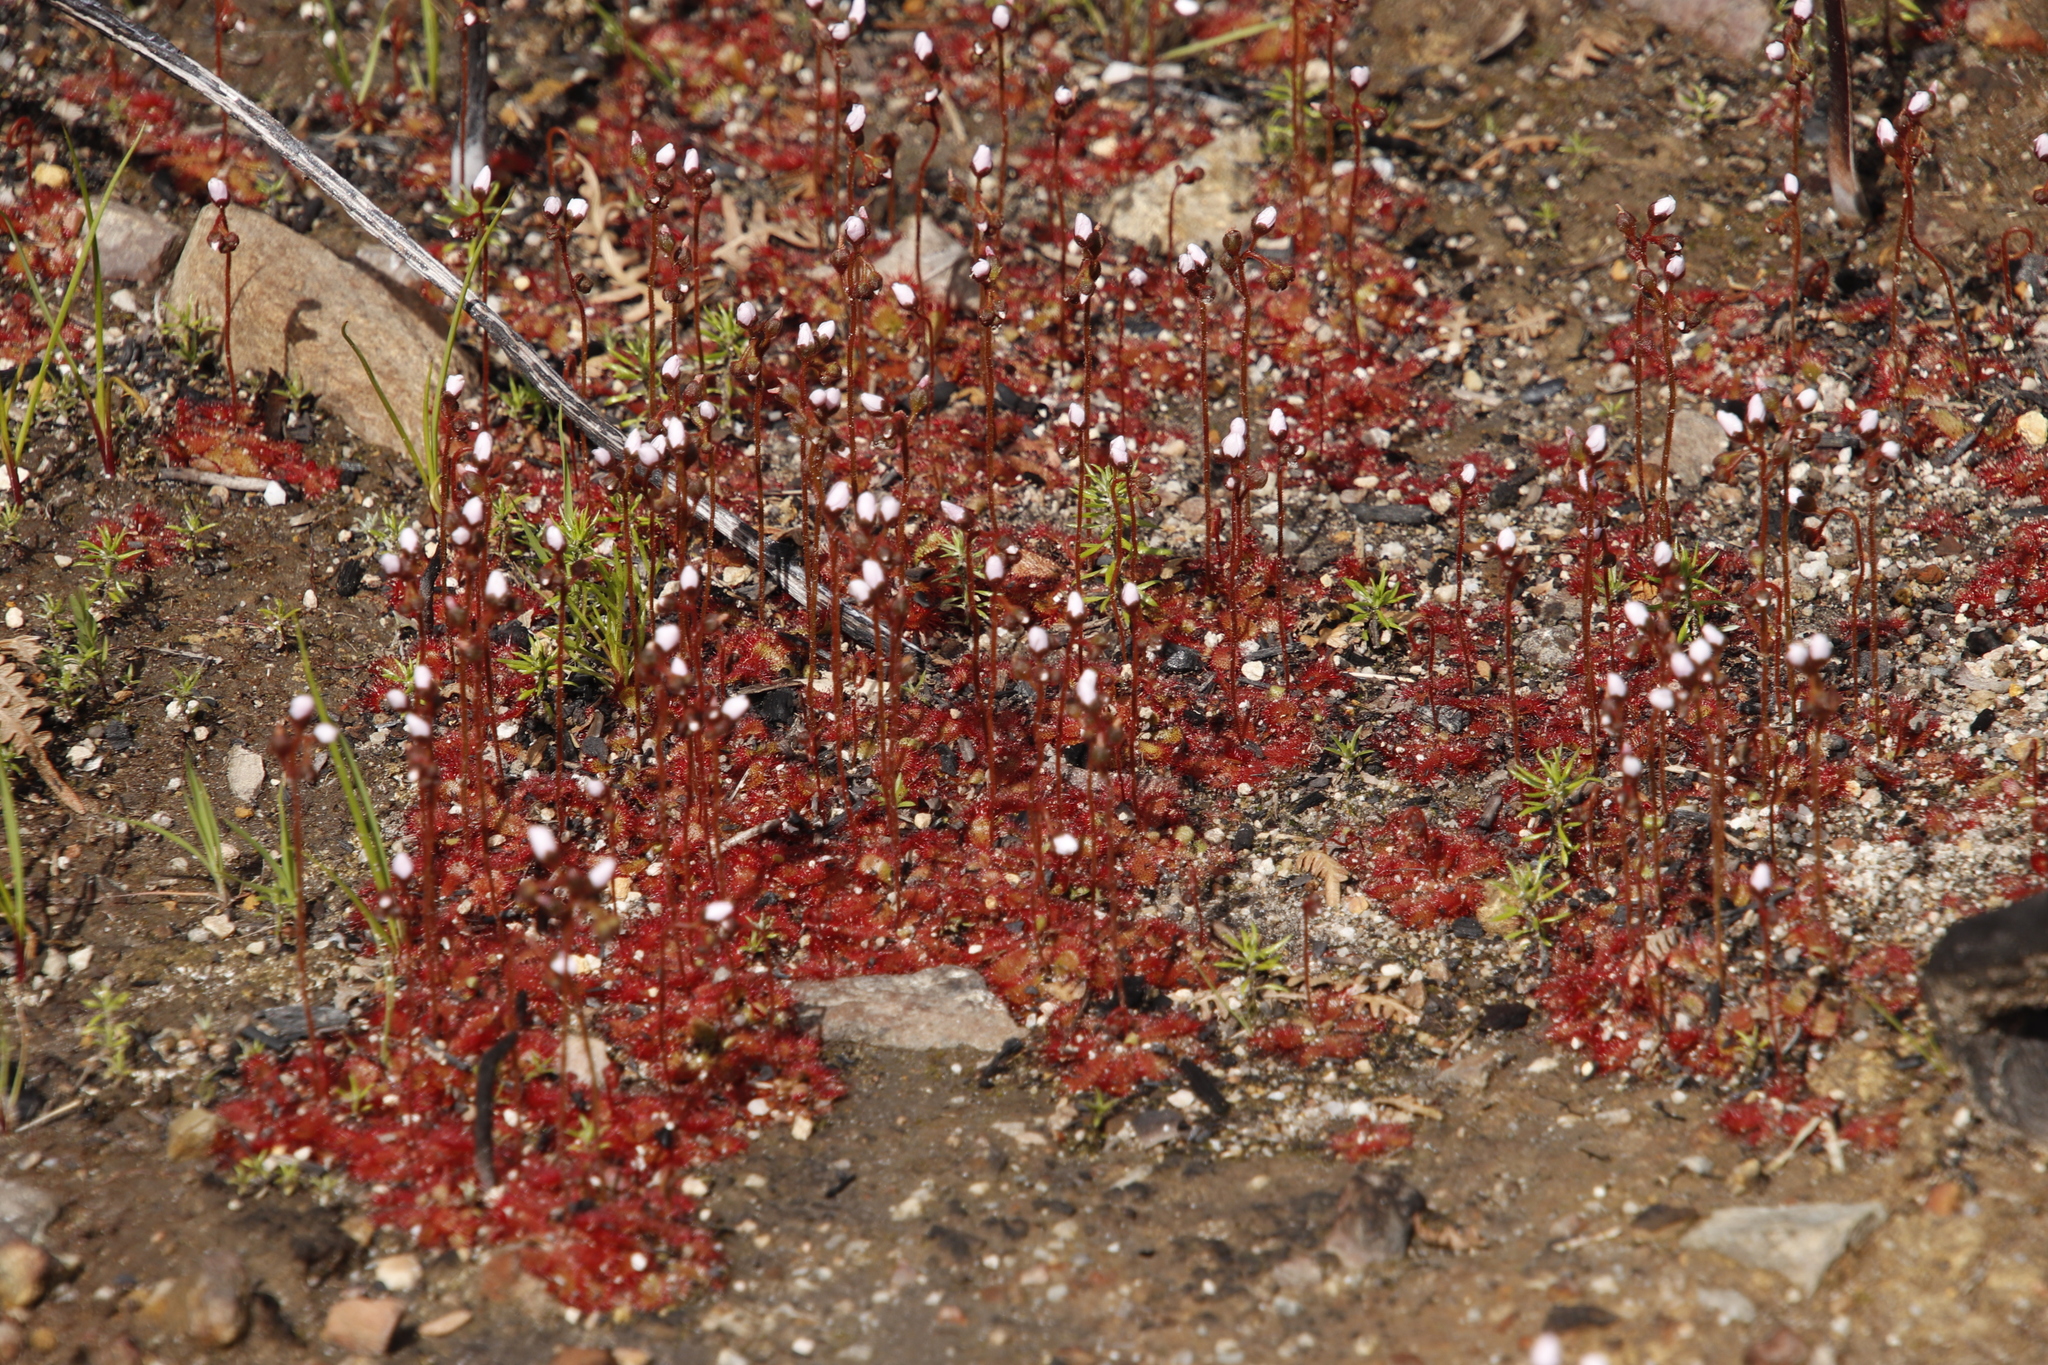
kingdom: Plantae
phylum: Tracheophyta
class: Magnoliopsida
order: Caryophyllales
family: Droseraceae
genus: Drosera
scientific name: Drosera trinervia
